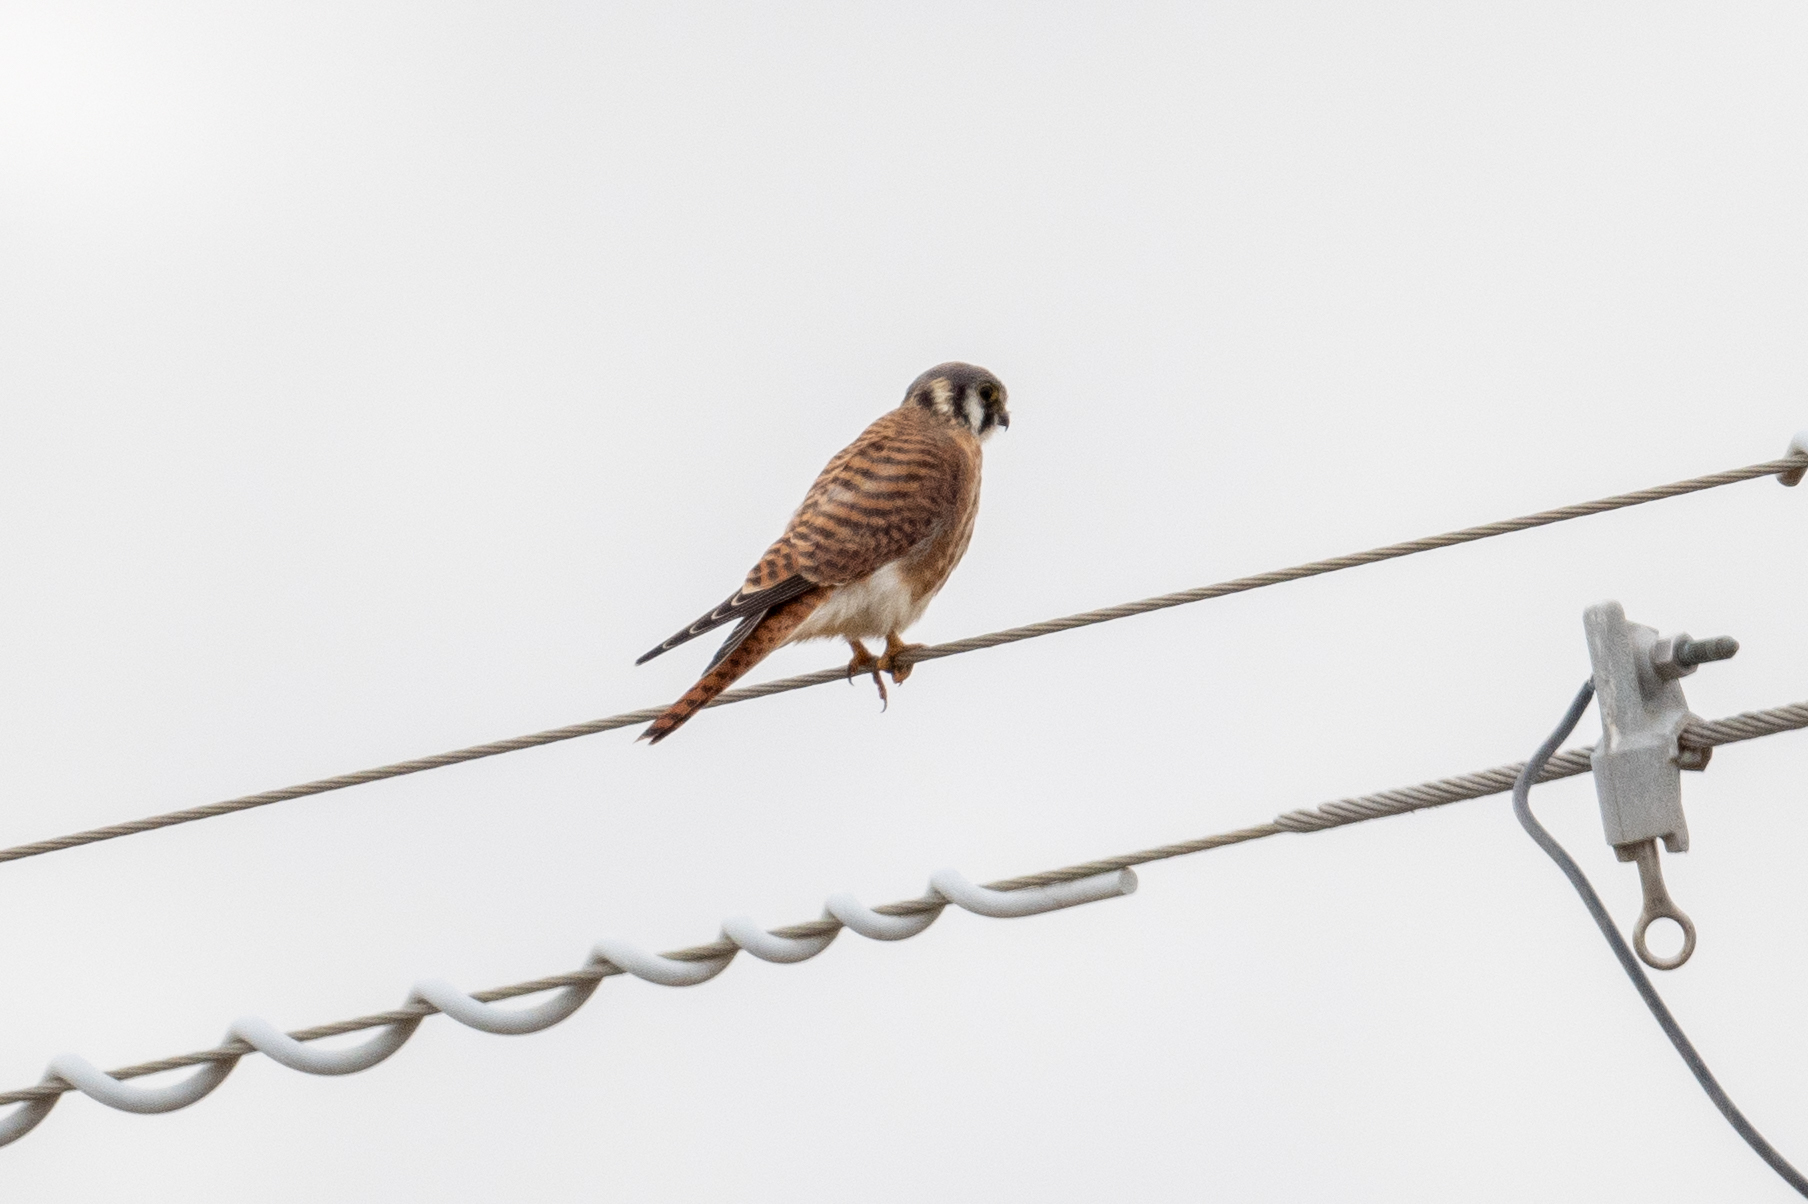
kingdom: Animalia
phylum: Chordata
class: Aves
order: Falconiformes
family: Falconidae
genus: Falco
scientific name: Falco sparverius
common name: American kestrel
